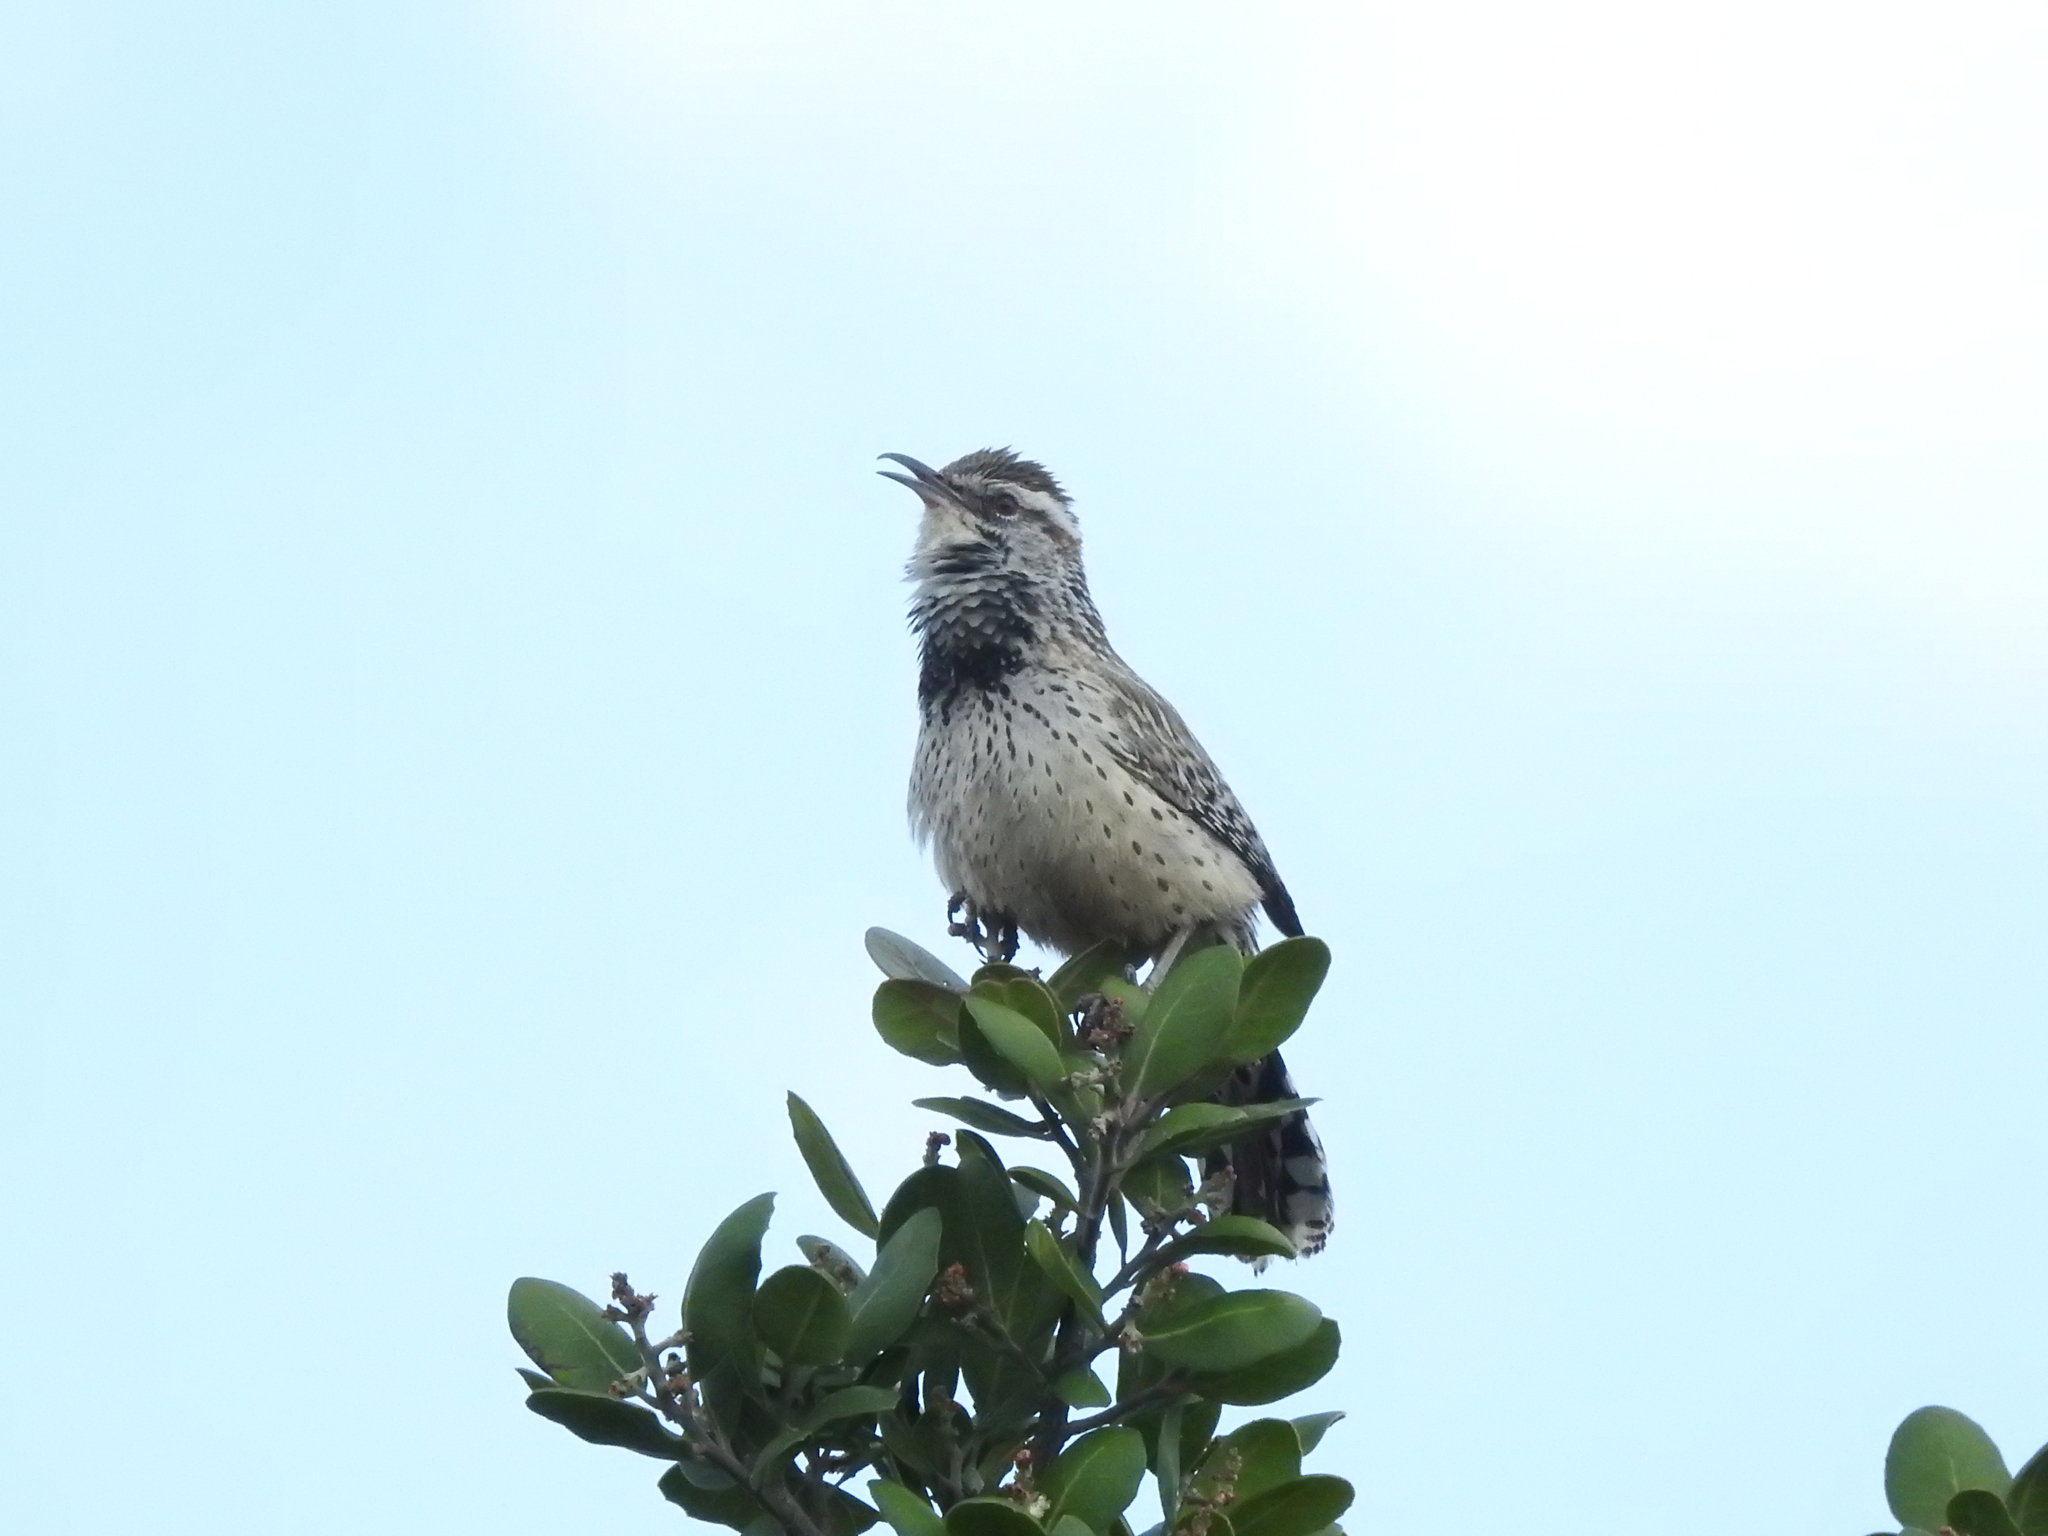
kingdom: Animalia
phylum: Chordata
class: Aves
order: Passeriformes
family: Troglodytidae
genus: Campylorhynchus
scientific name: Campylorhynchus brunneicapillus
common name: Cactus wren
